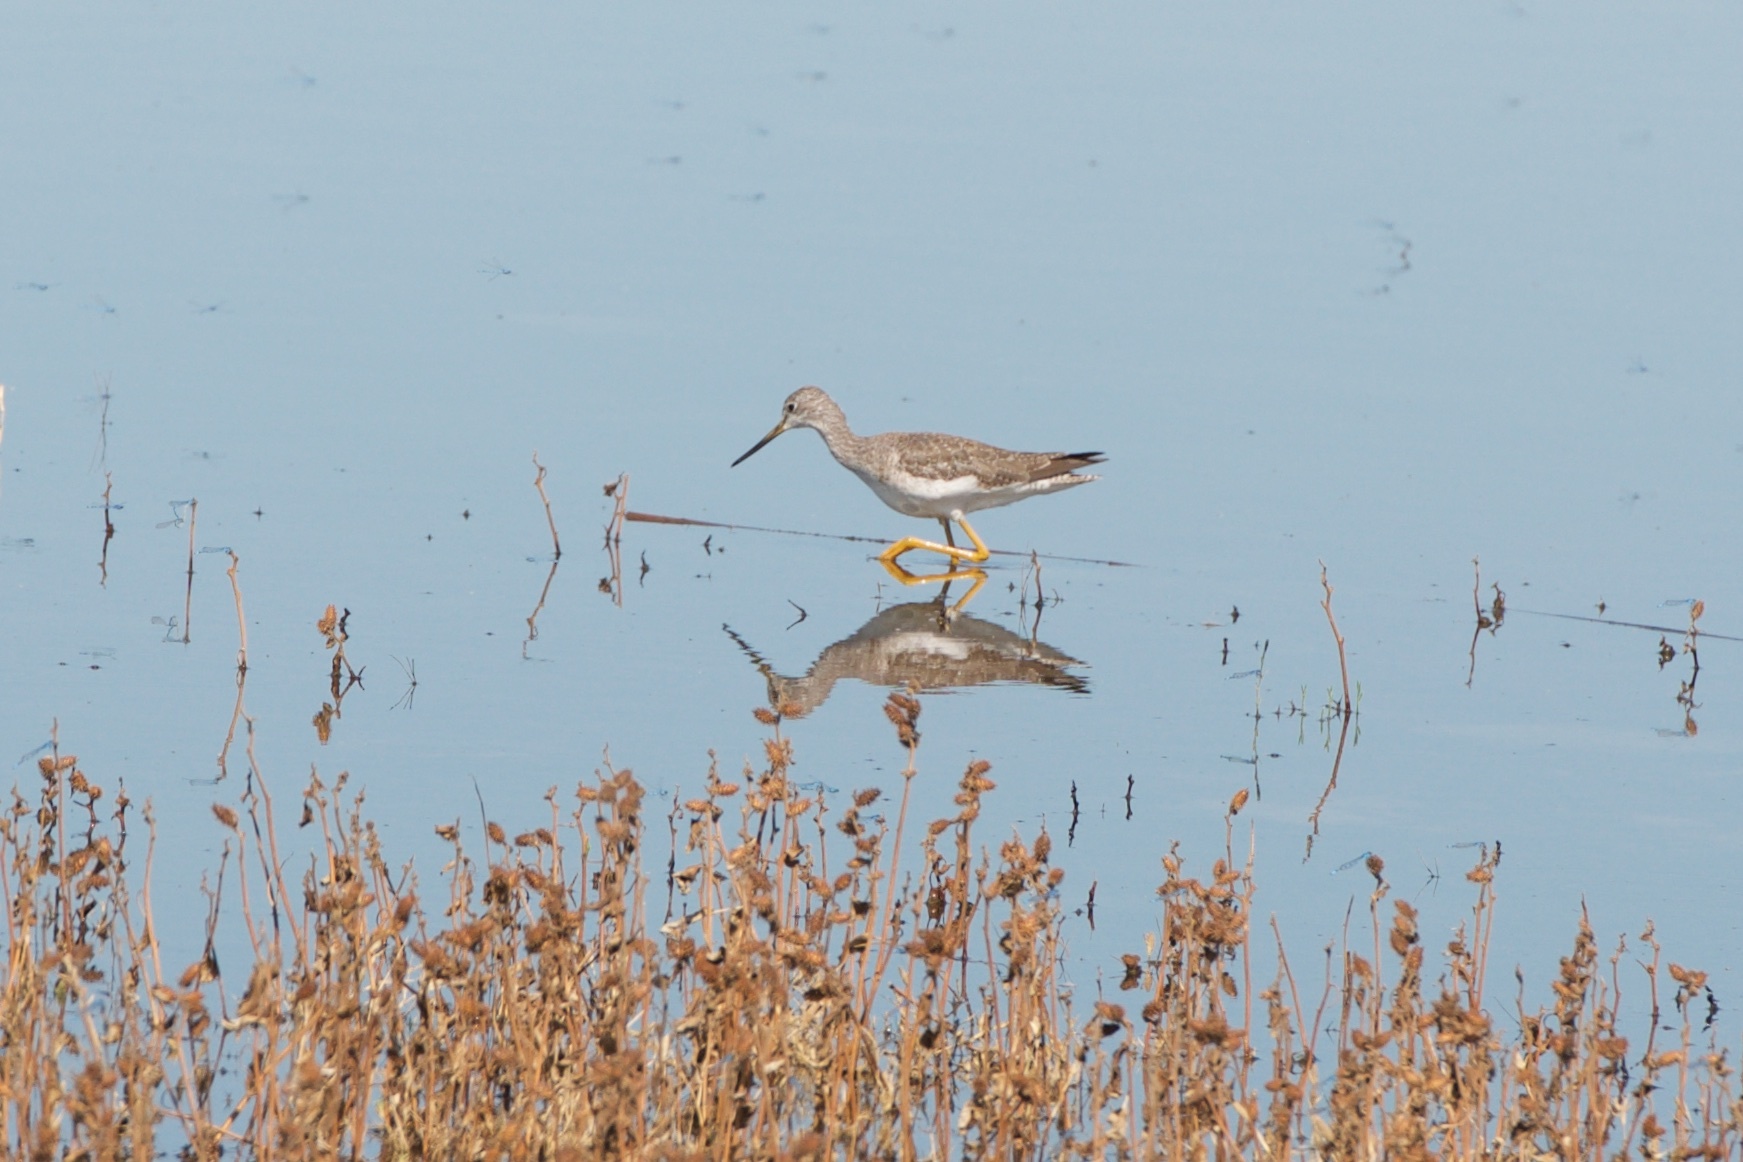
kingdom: Animalia
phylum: Chordata
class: Aves
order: Charadriiformes
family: Scolopacidae
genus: Tringa
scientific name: Tringa melanoleuca
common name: Greater yellowlegs
